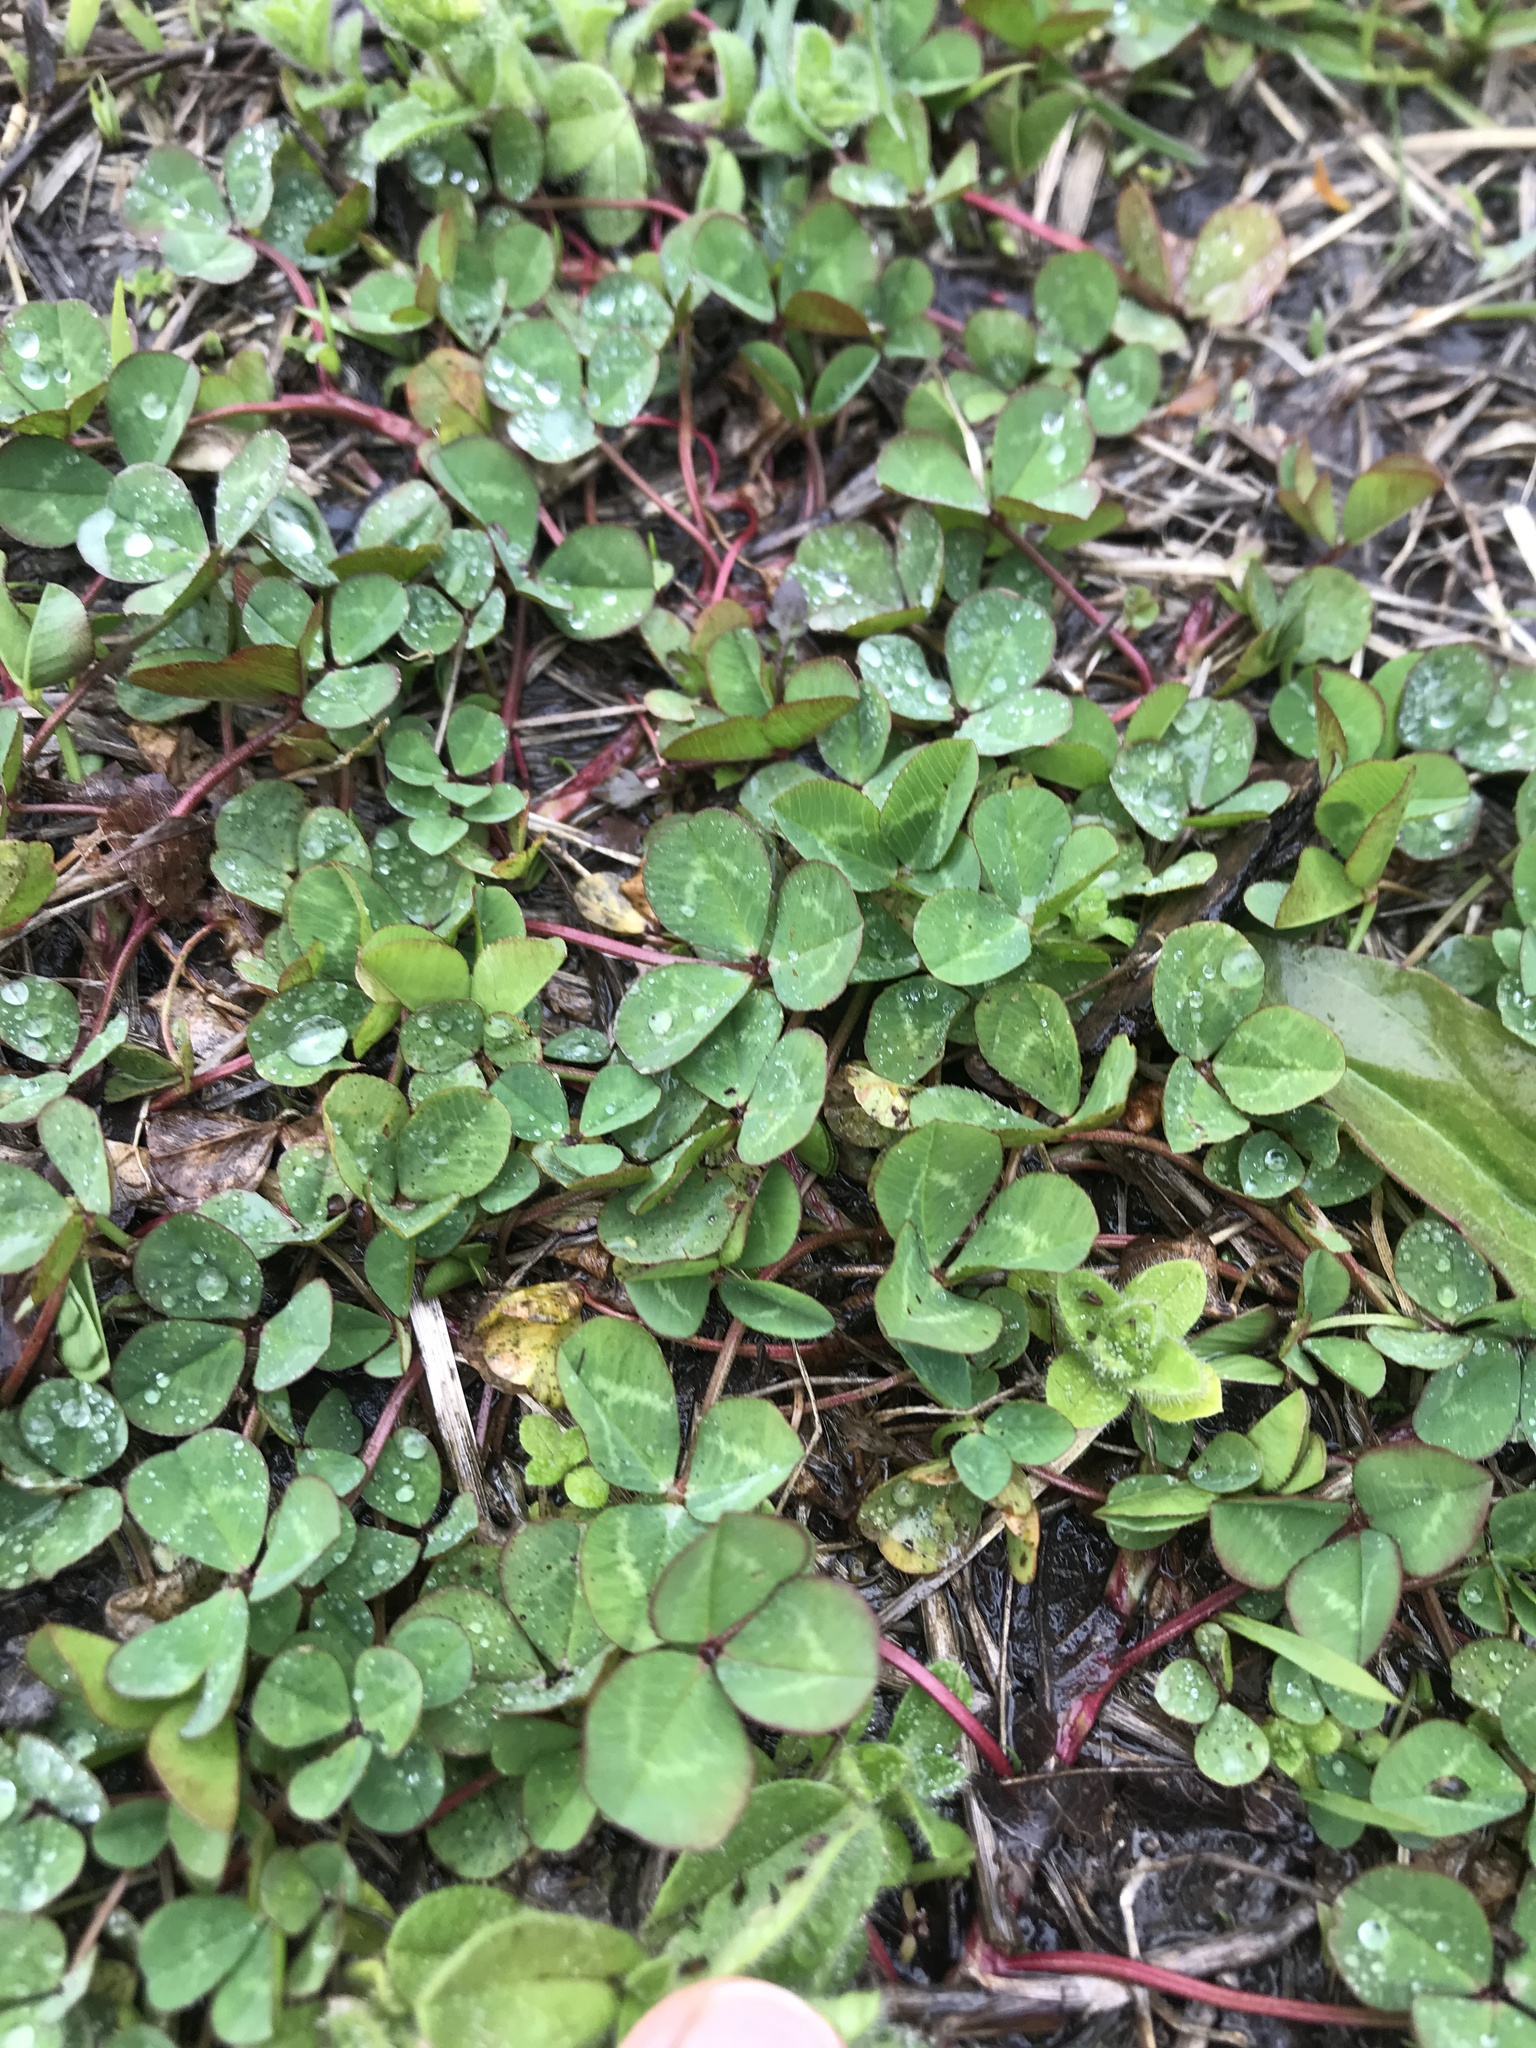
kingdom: Plantae
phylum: Tracheophyta
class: Magnoliopsida
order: Fabales
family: Fabaceae
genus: Trifolium
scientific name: Trifolium repens
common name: White clover
